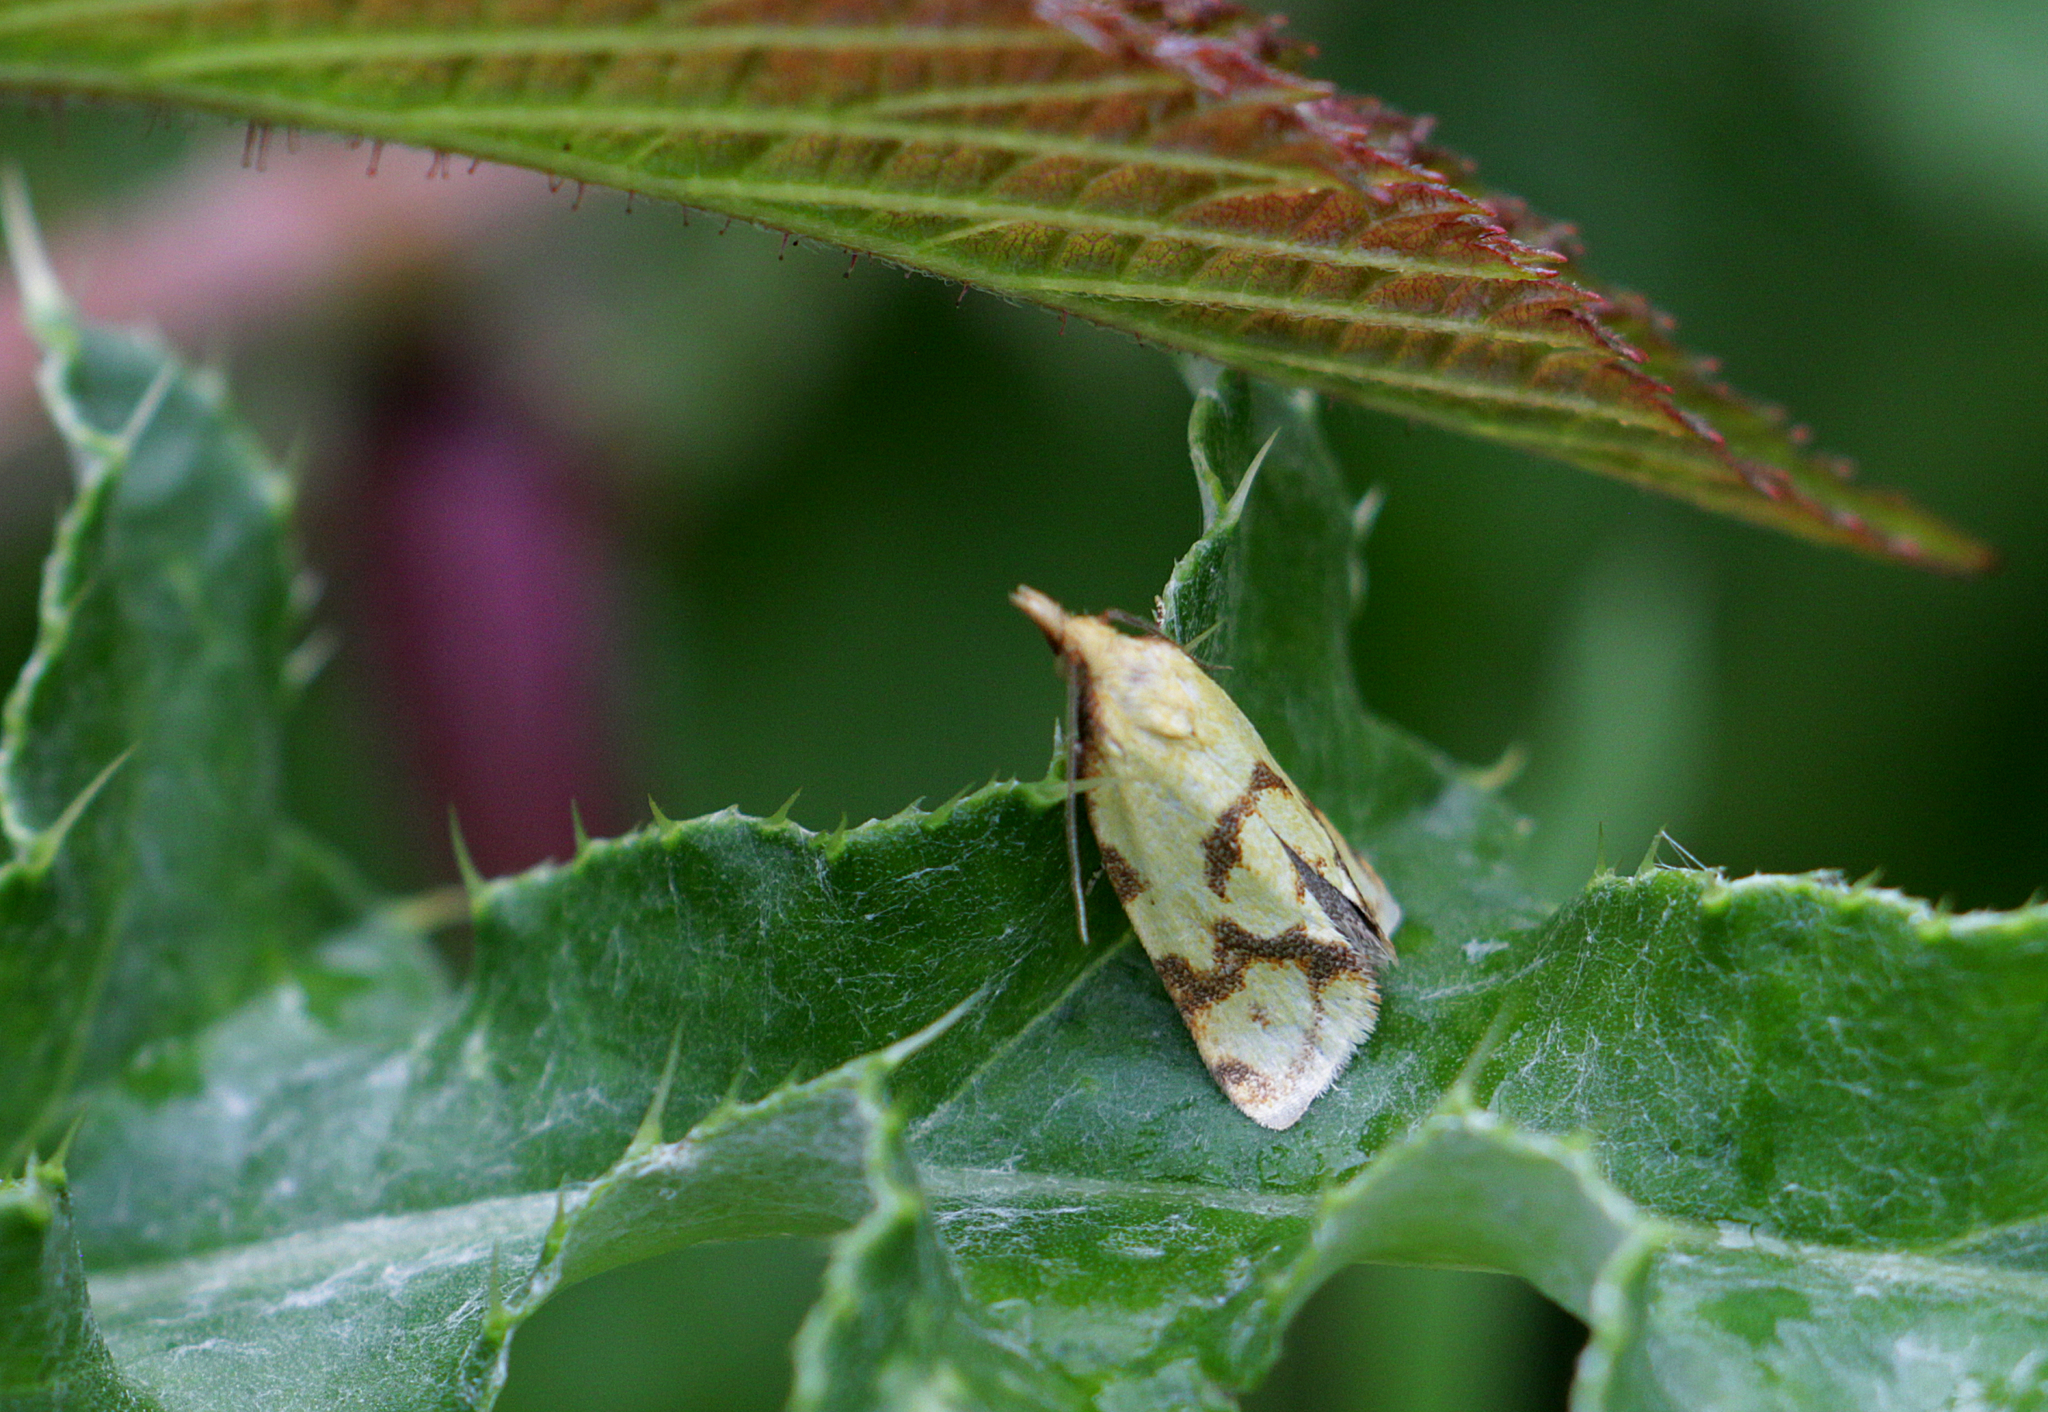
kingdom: Animalia
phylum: Arthropoda
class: Insecta
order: Lepidoptera
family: Tortricidae
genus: Agapeta
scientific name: Agapeta hamana
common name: Common yellow conch
